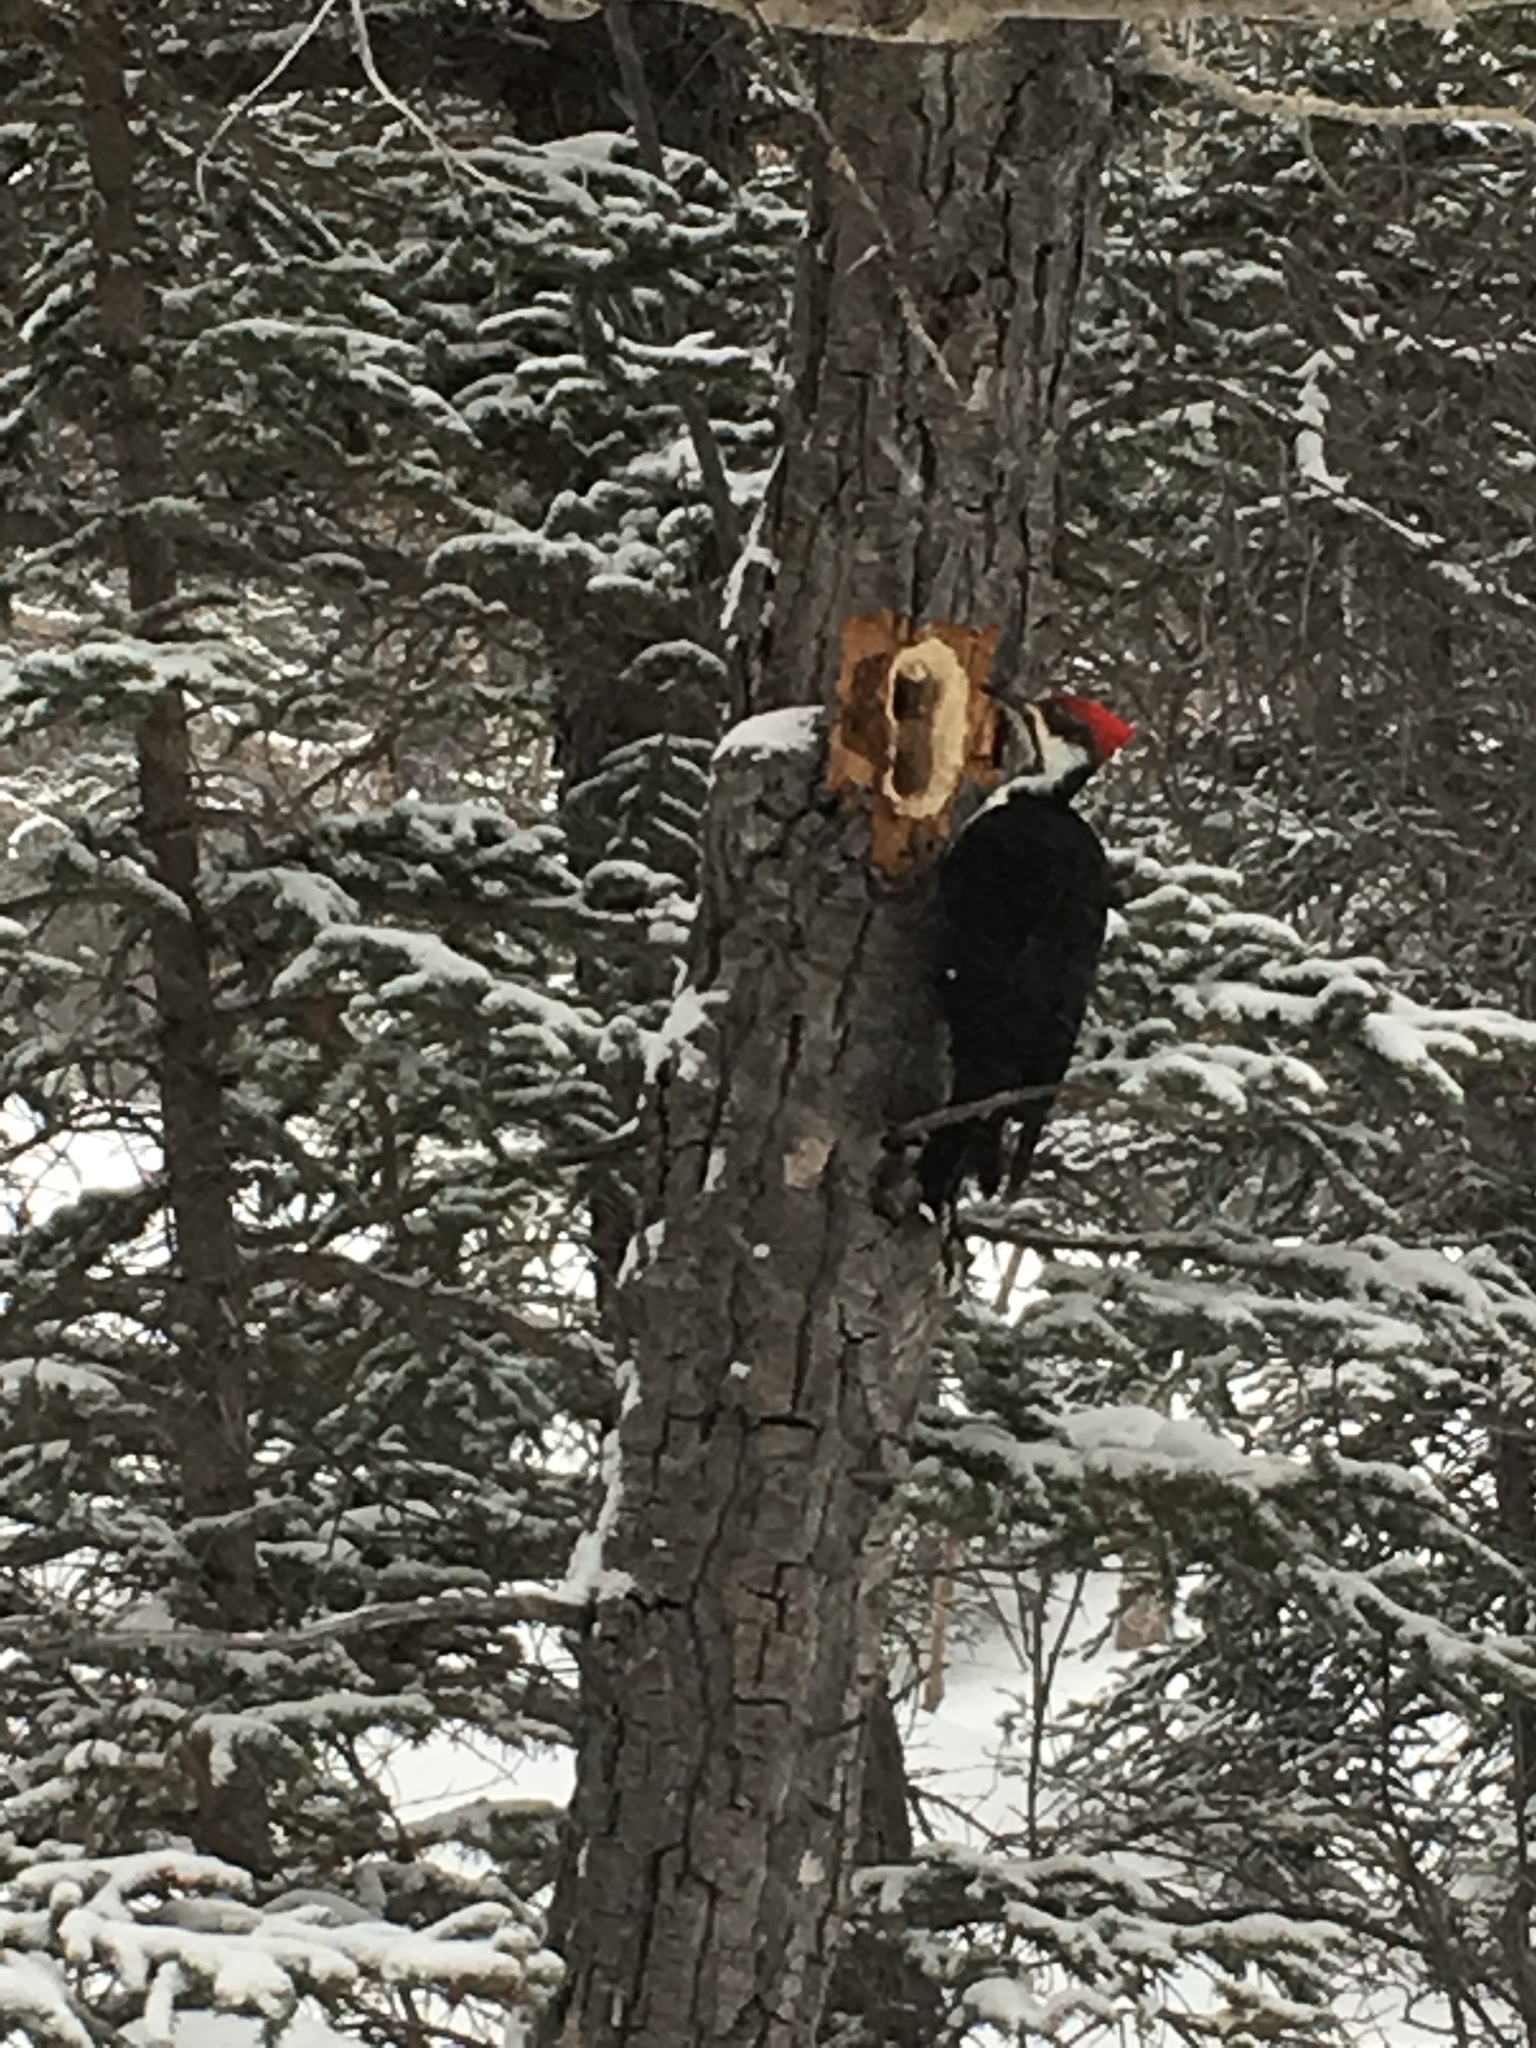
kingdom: Animalia
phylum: Chordata
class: Aves
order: Piciformes
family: Picidae
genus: Dryocopus
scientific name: Dryocopus pileatus
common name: Pileated woodpecker
